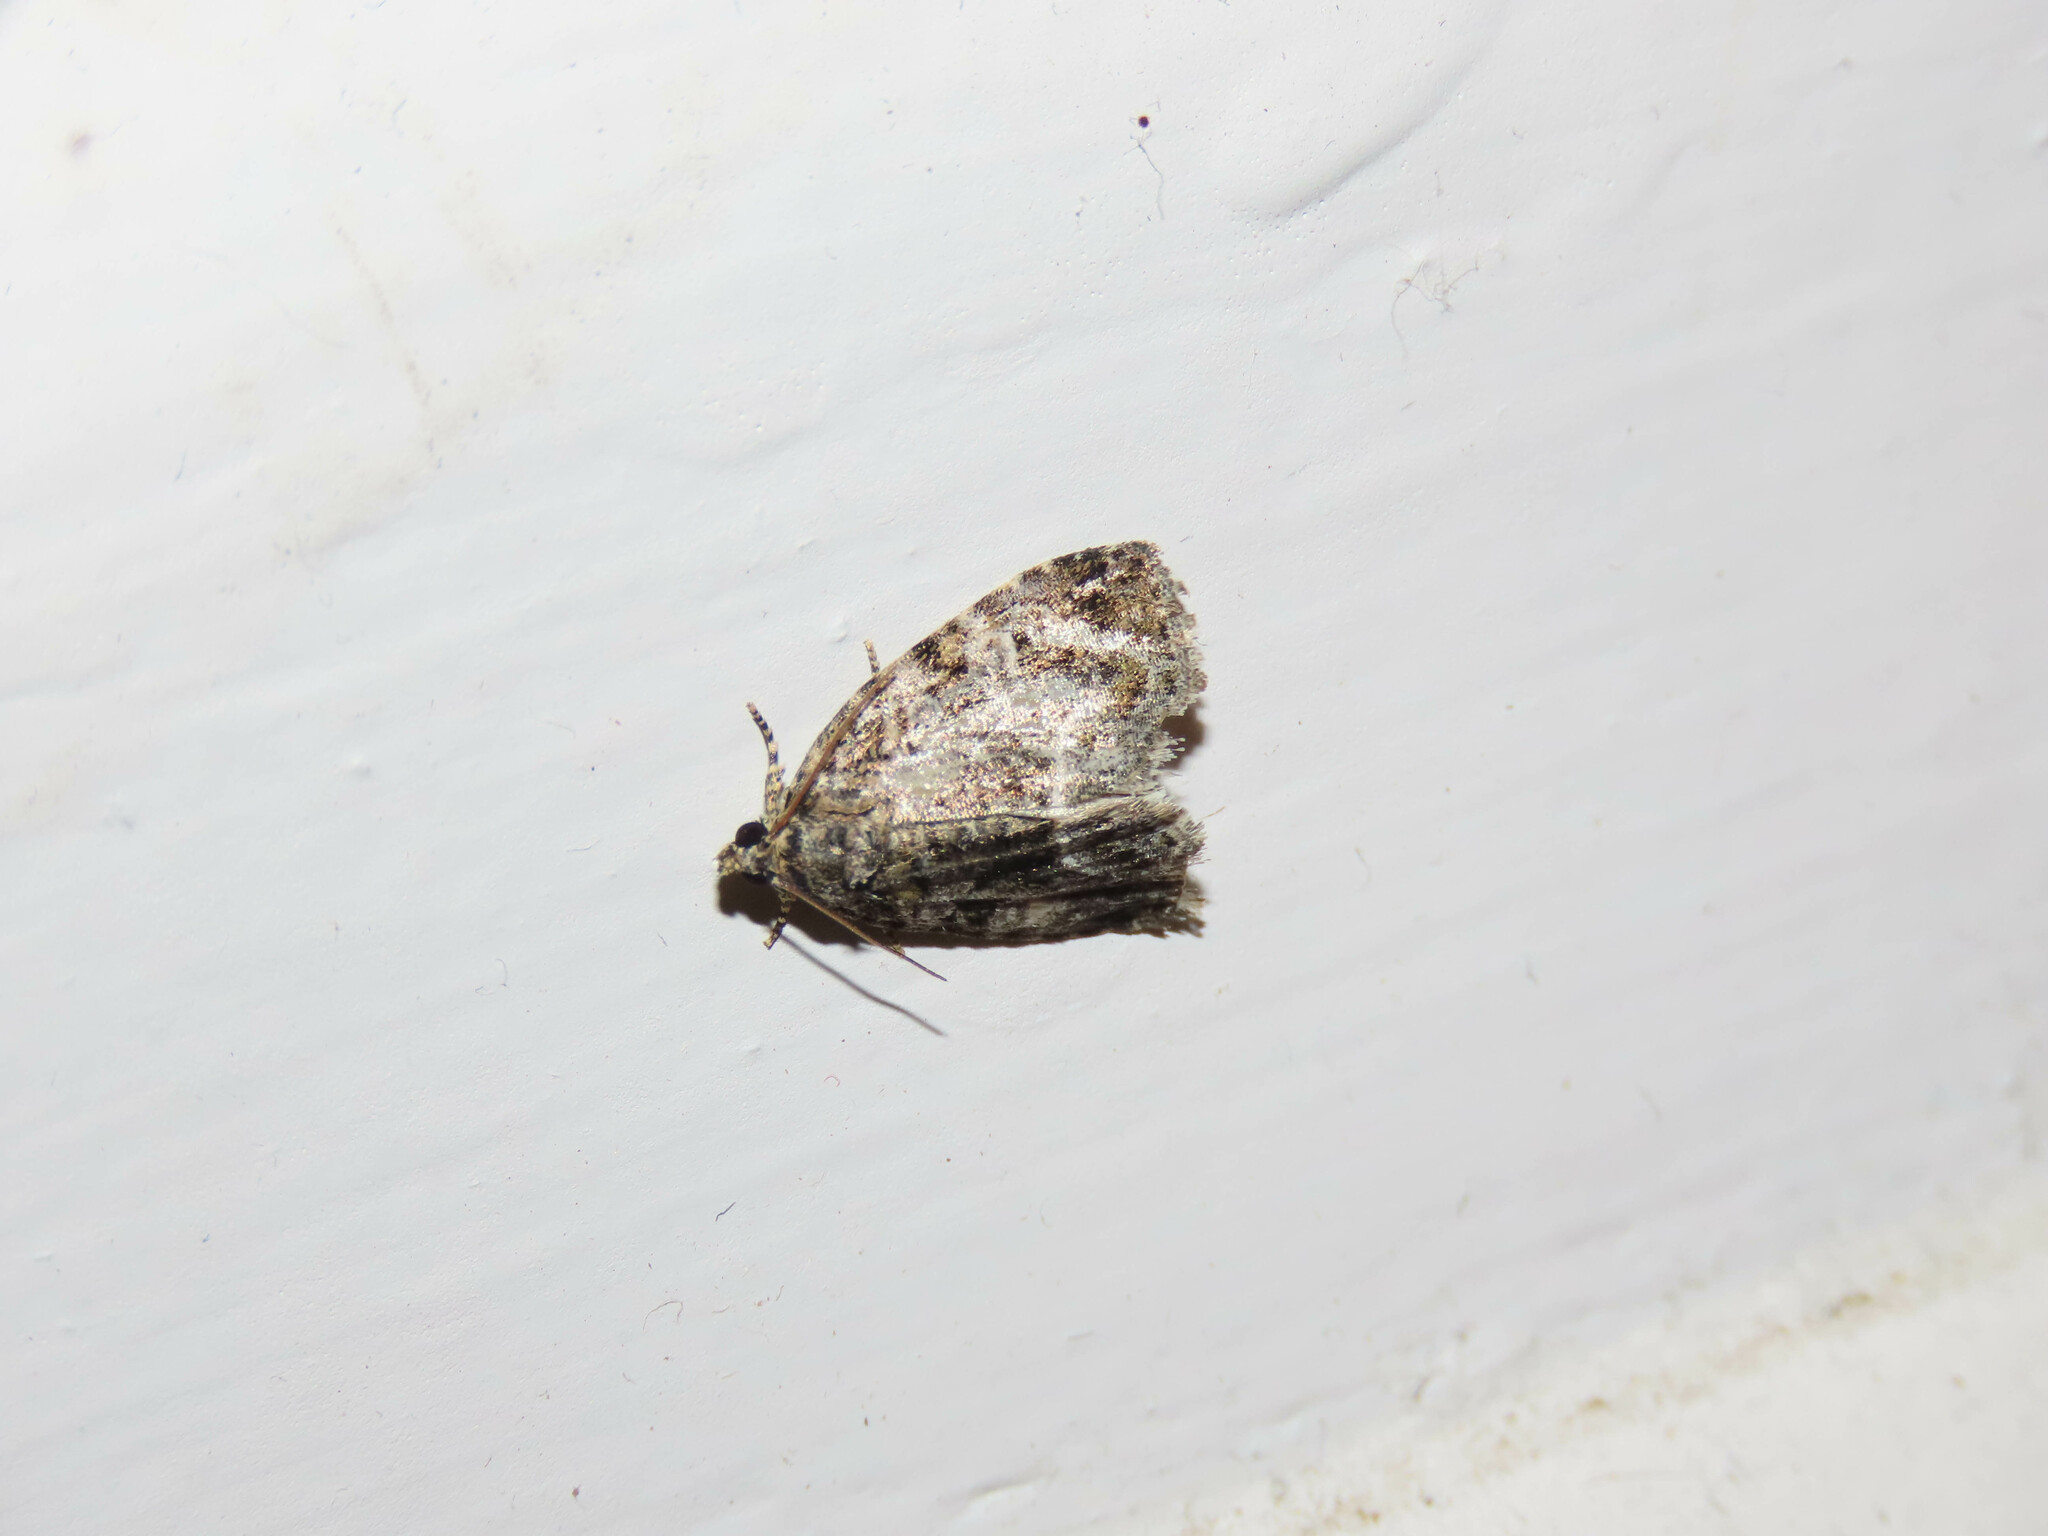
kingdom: Animalia
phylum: Arthropoda
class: Insecta
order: Lepidoptera
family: Noctuidae
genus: Protodeltote
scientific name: Protodeltote muscosula
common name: Large mossy glyph
